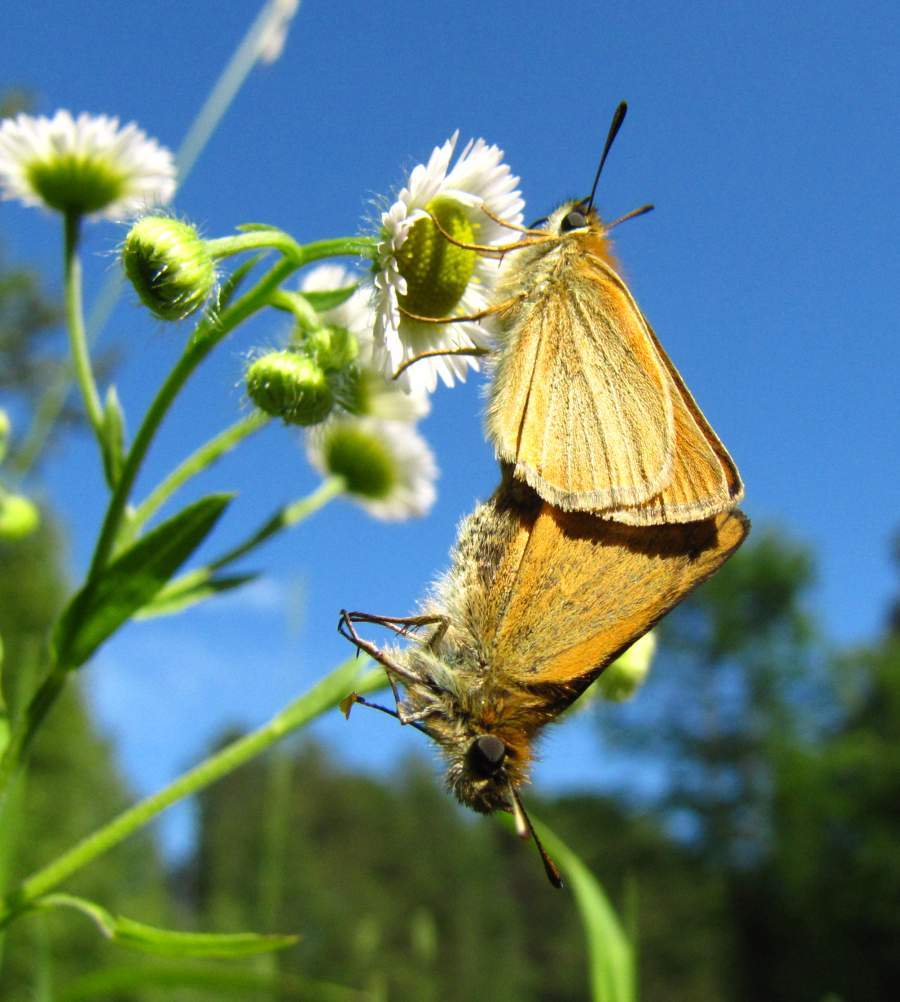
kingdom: Animalia
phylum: Arthropoda
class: Insecta
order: Lepidoptera
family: Hesperiidae
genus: Thymelicus
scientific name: Thymelicus lineola
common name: Essex skipper
